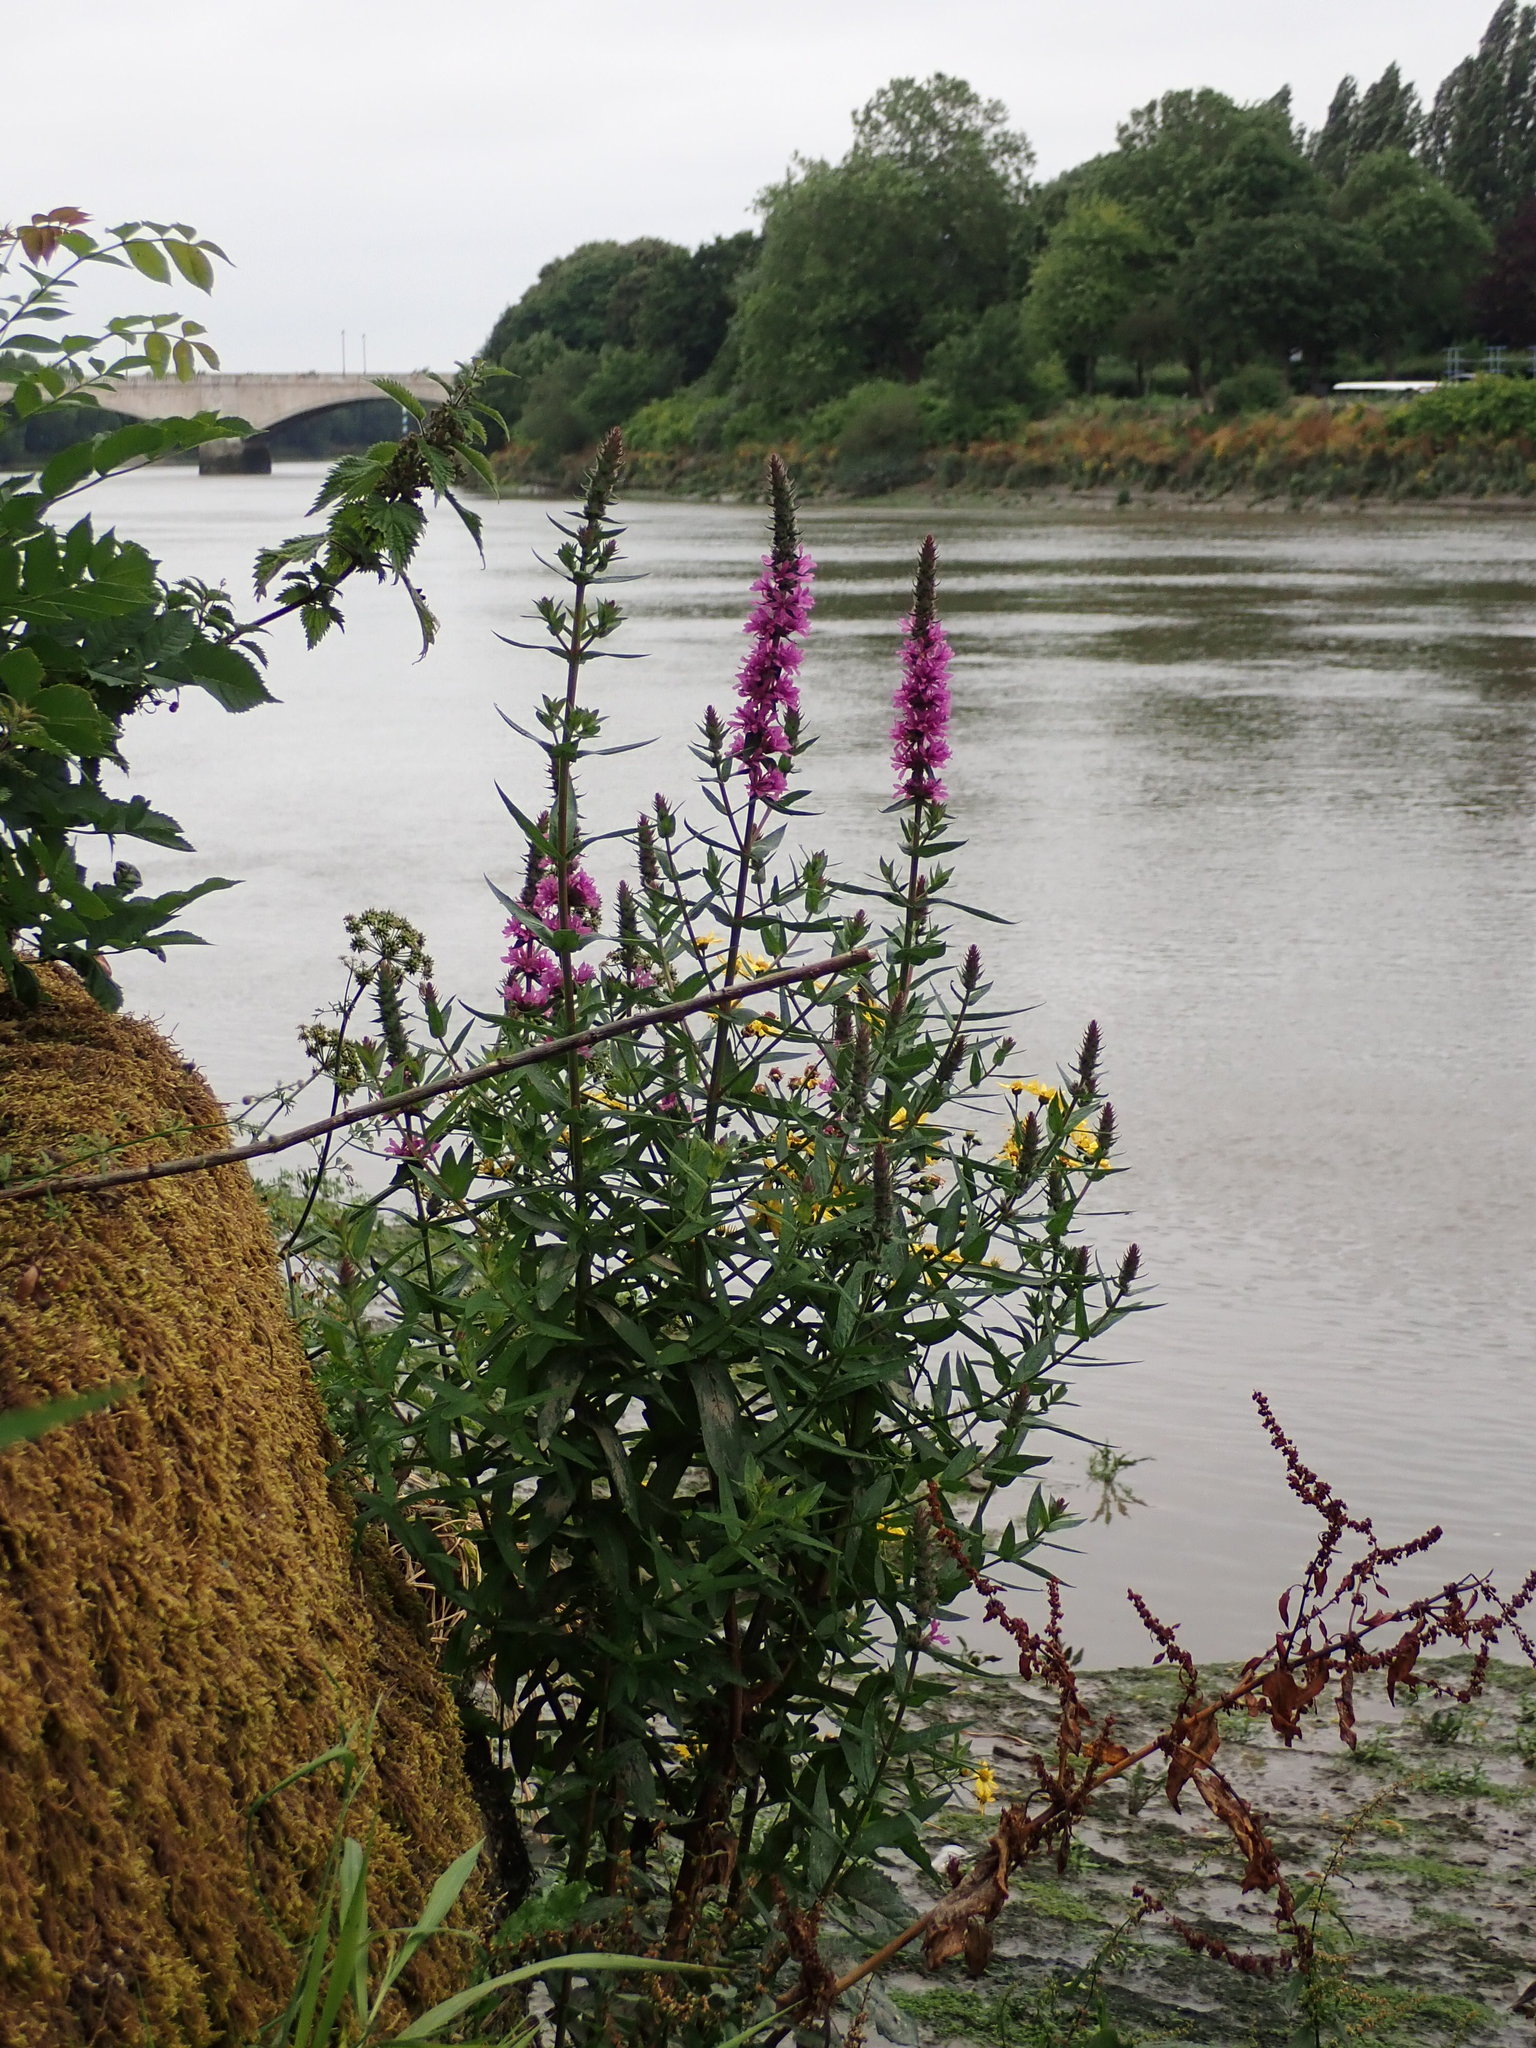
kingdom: Plantae
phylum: Tracheophyta
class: Magnoliopsida
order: Myrtales
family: Lythraceae
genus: Lythrum
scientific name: Lythrum salicaria
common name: Purple loosestrife
